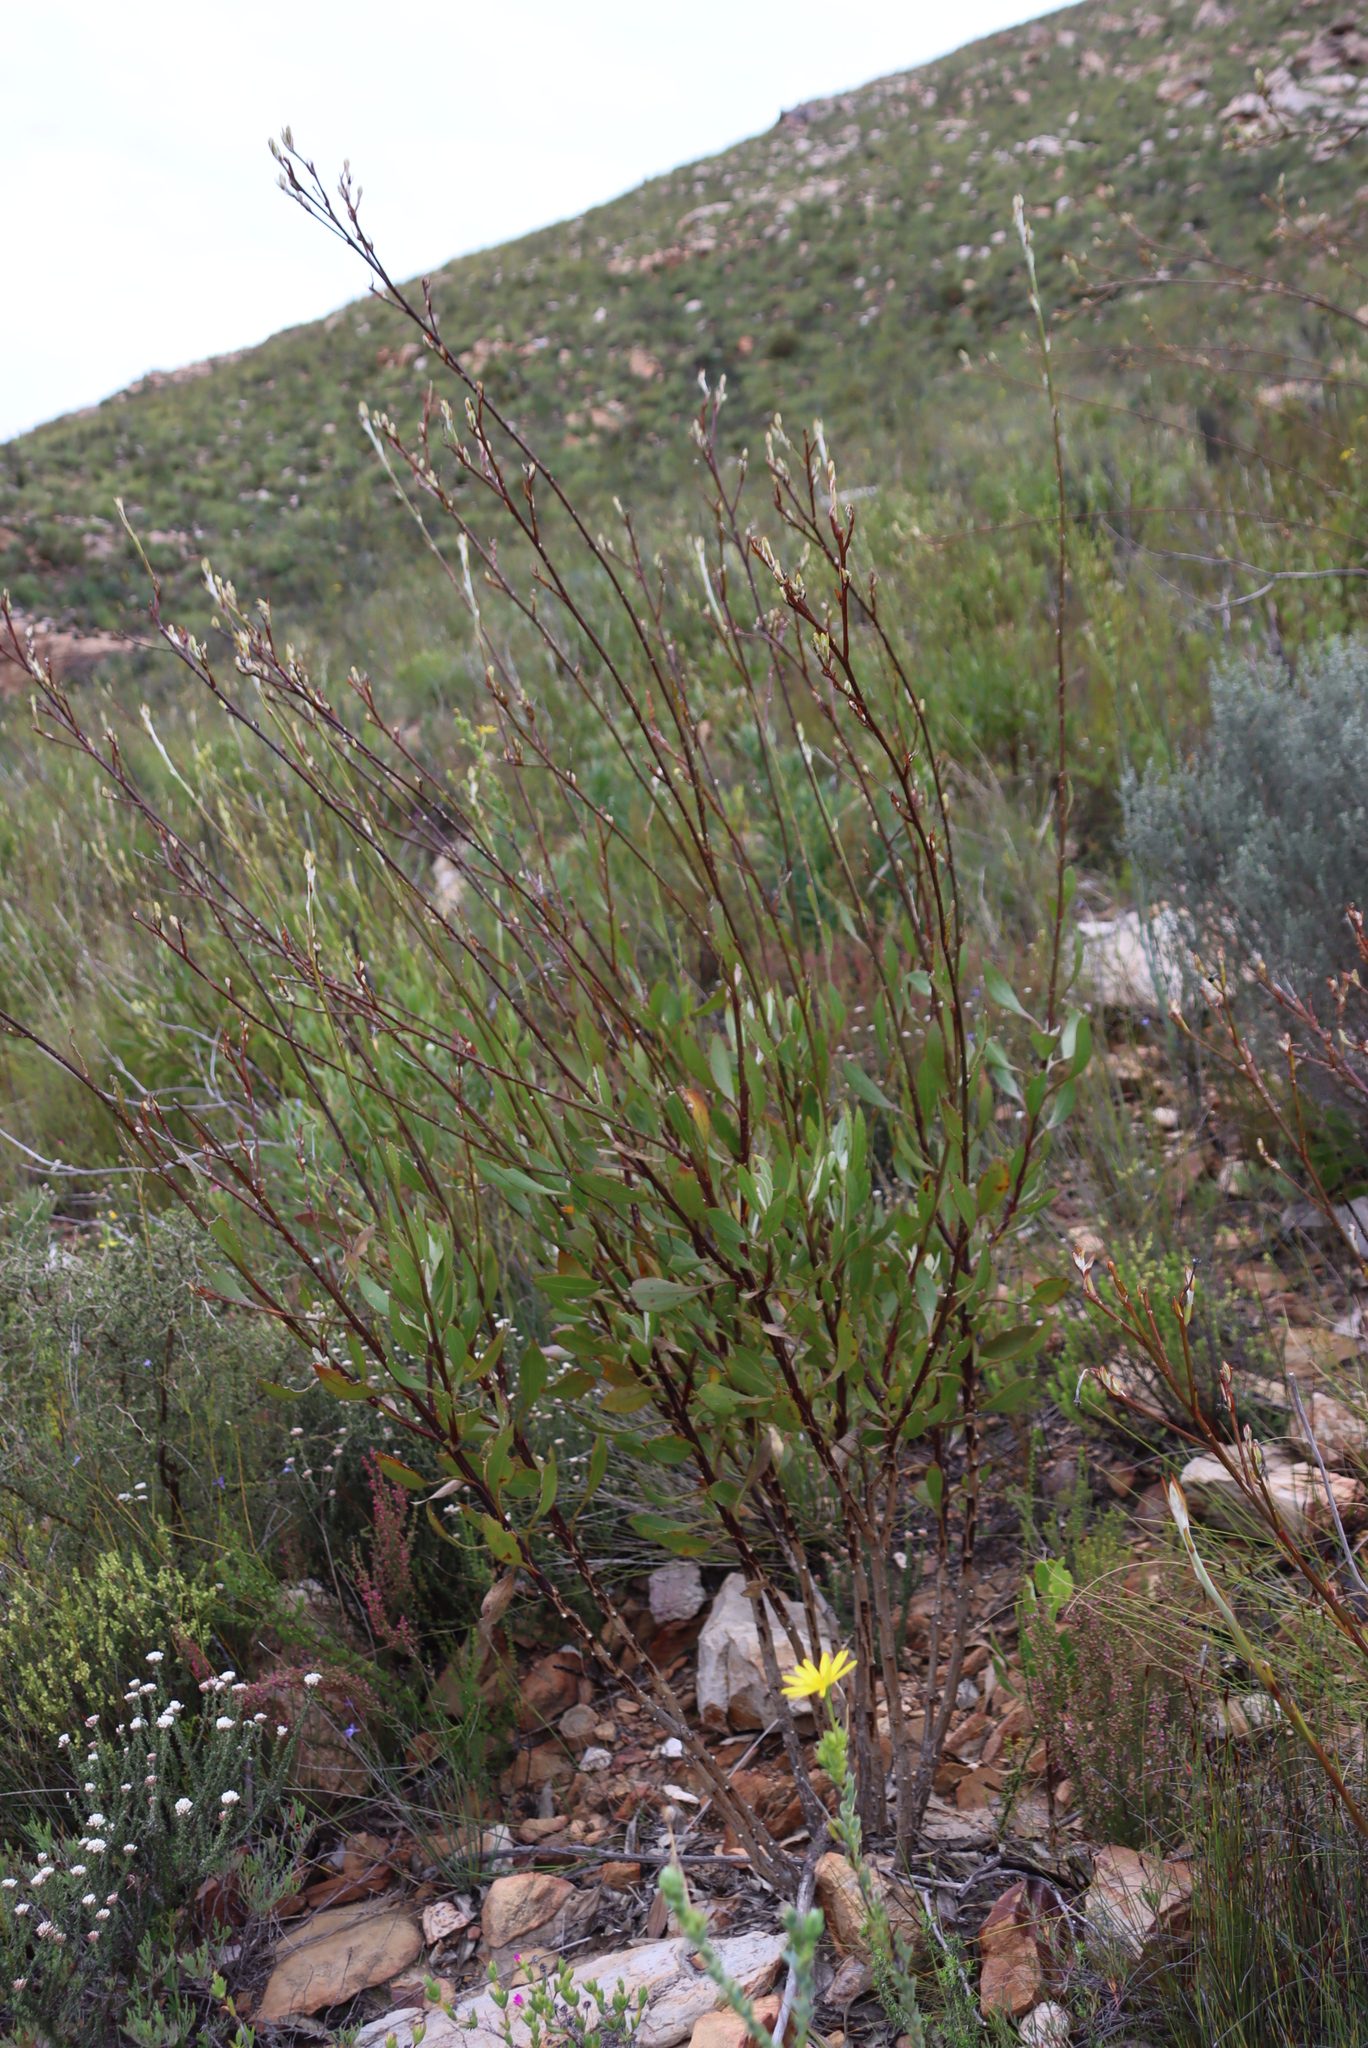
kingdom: Plantae
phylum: Tracheophyta
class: Magnoliopsida
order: Asterales
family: Asteraceae
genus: Osteospermum
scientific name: Osteospermum junceum
